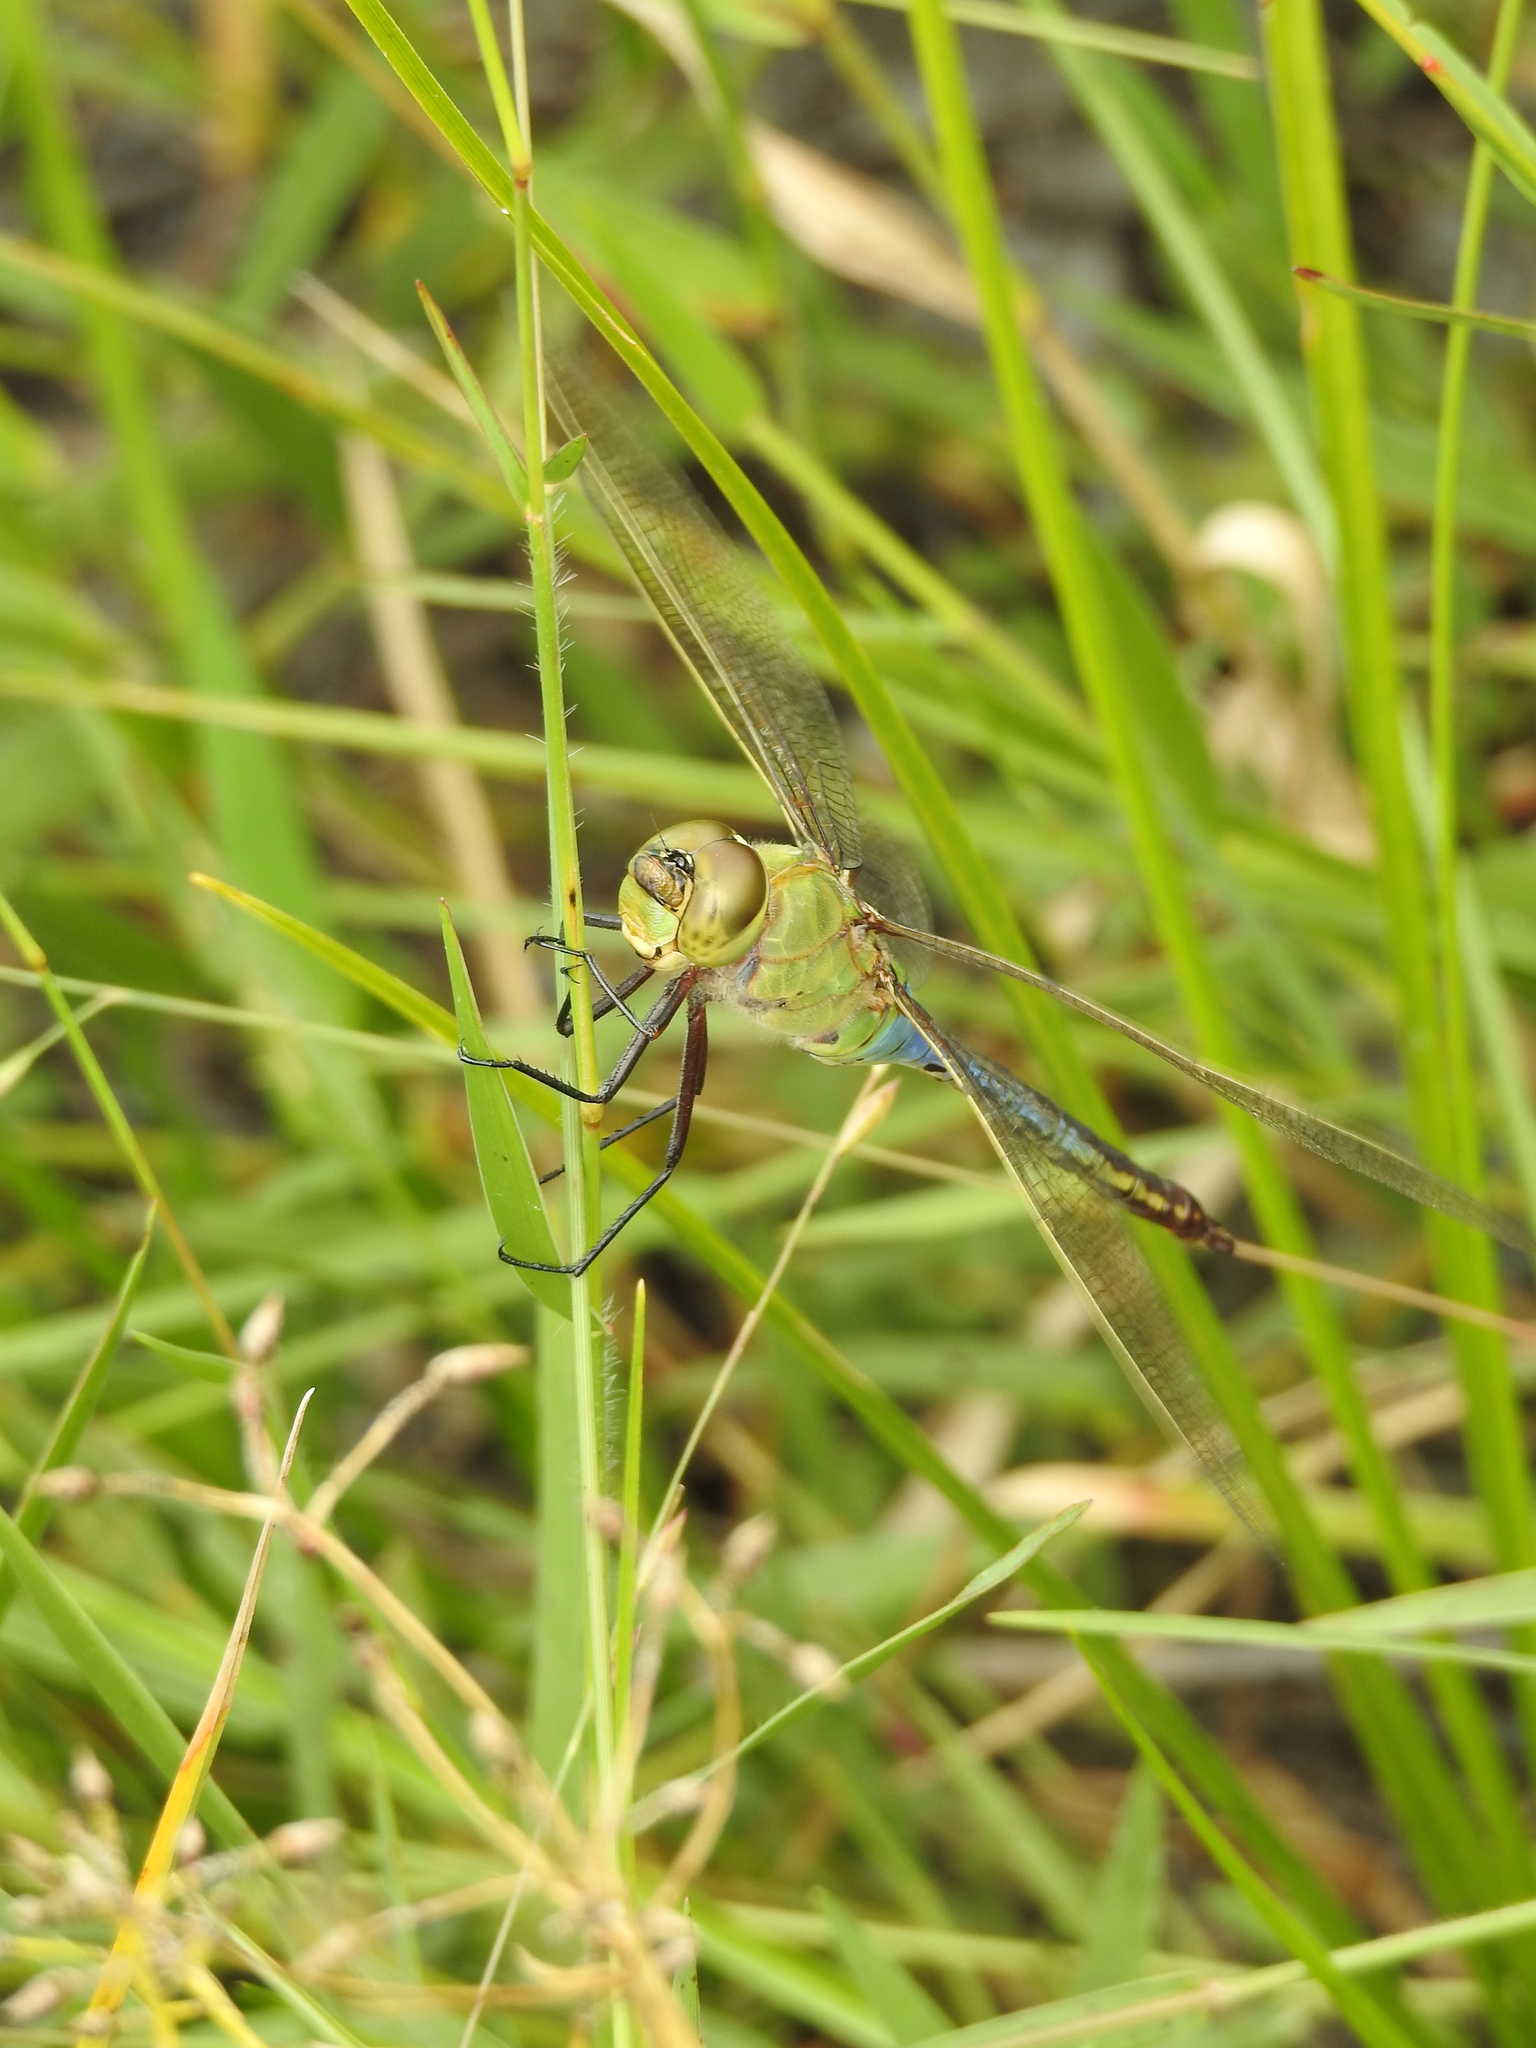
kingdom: Animalia
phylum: Arthropoda
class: Insecta
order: Odonata
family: Aeshnidae
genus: Anax
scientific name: Anax junius
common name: Common green darner
